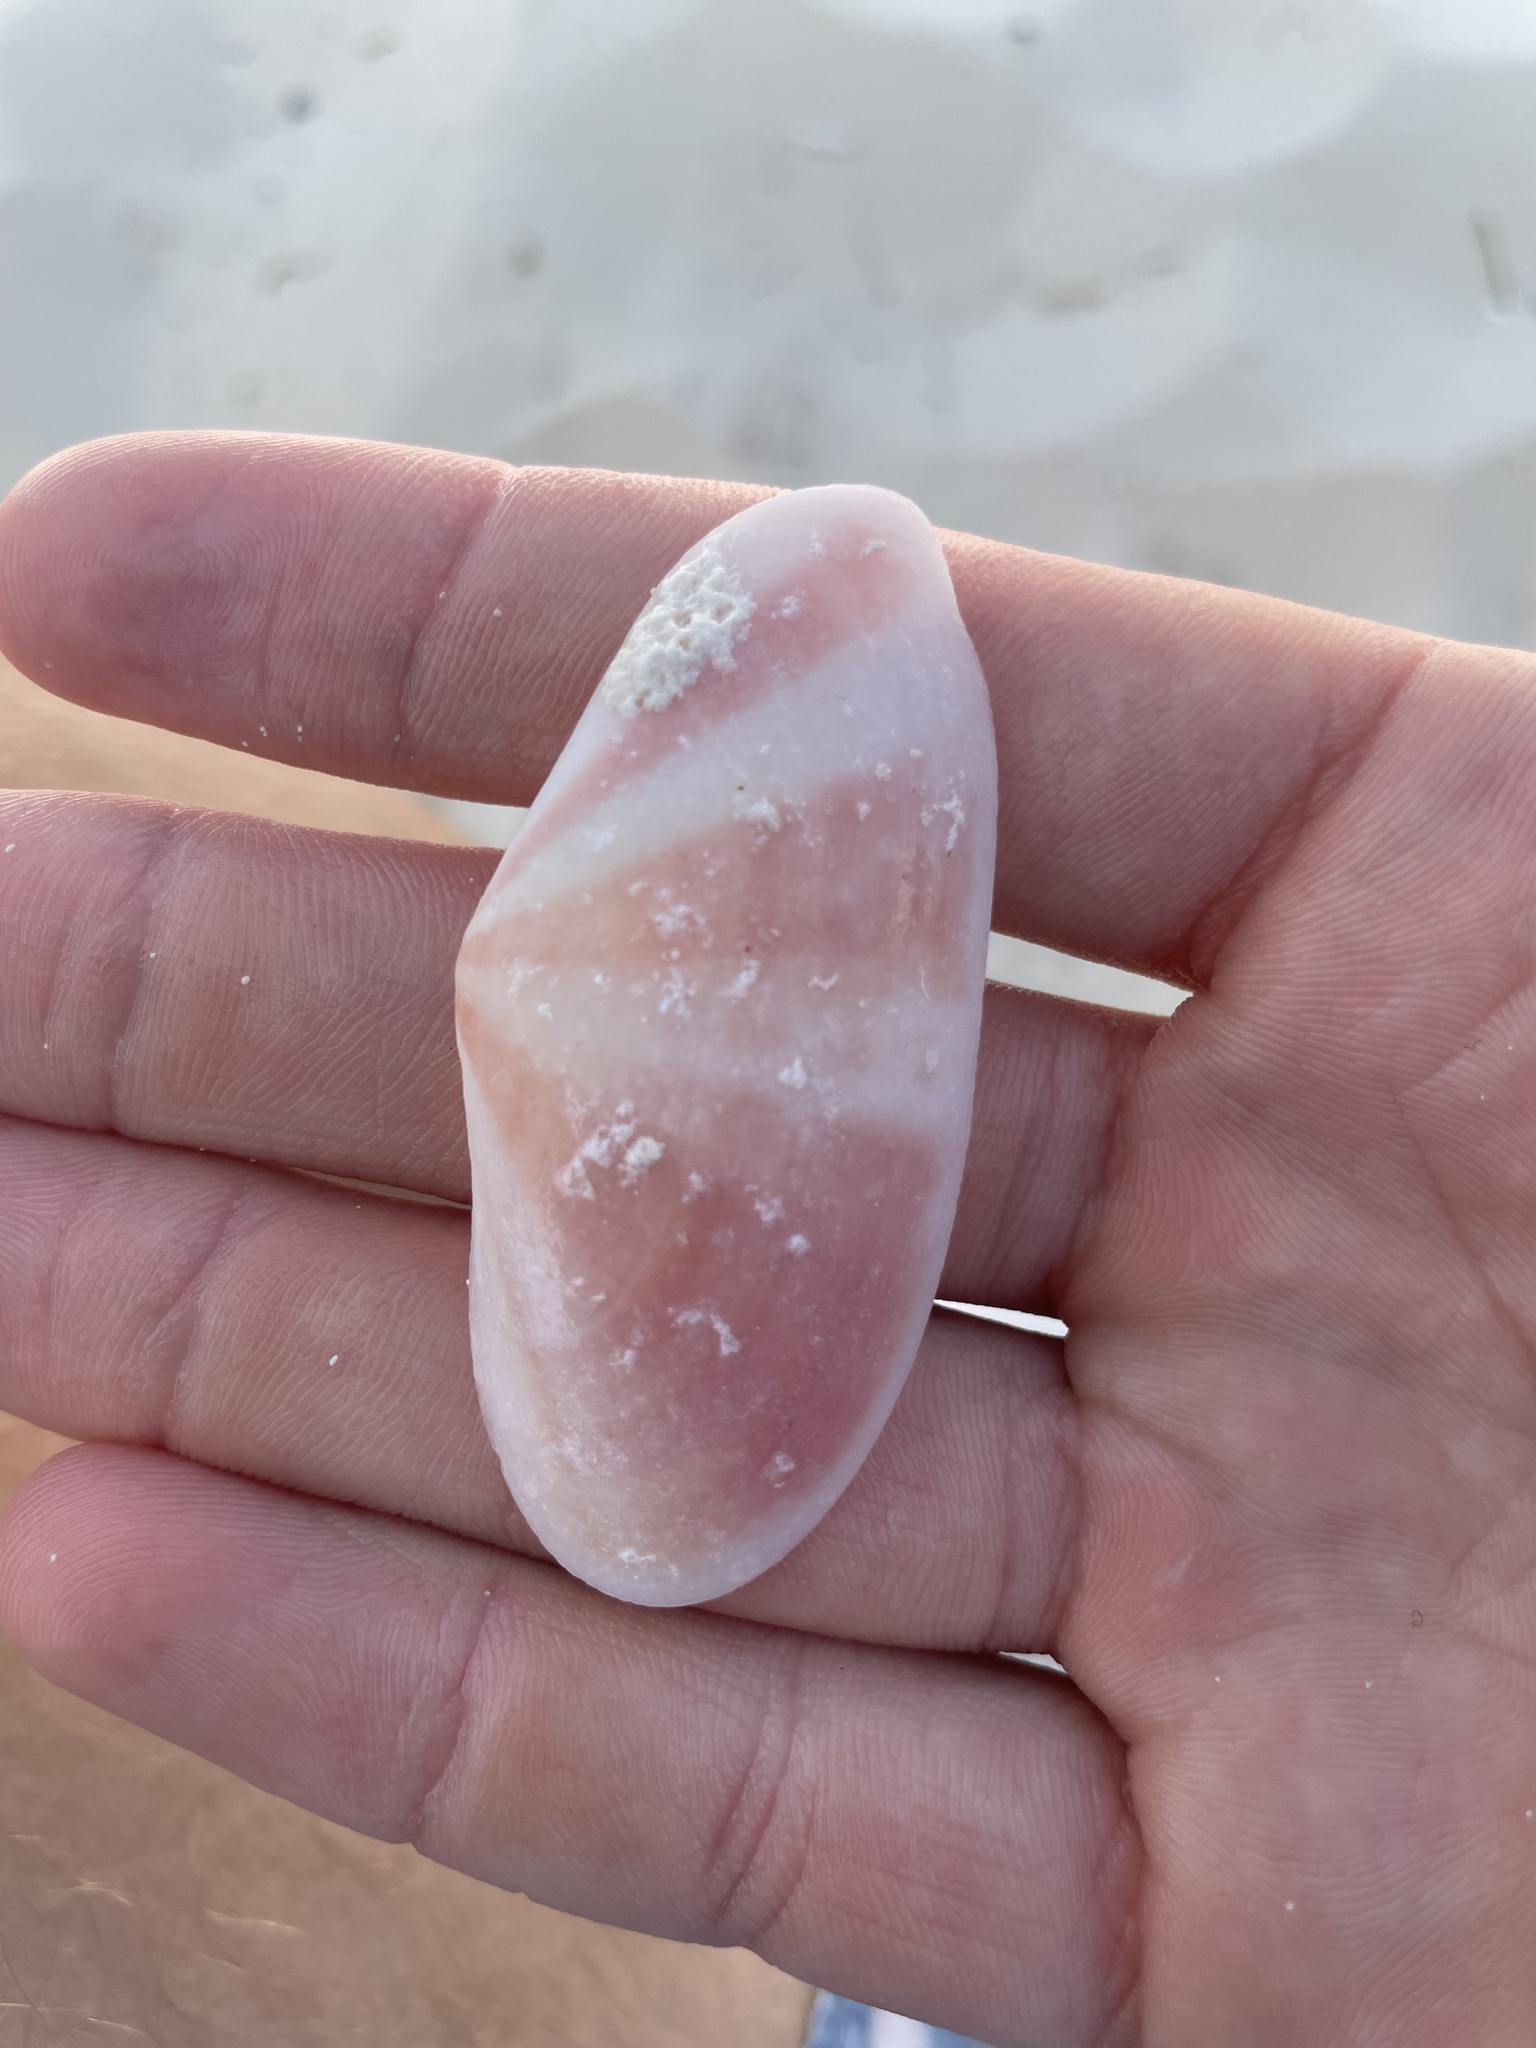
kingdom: Animalia
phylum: Mollusca
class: Bivalvia
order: Cardiida
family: Tellinidae
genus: Tellina
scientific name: Tellina radiata
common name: Sunrise tellin
